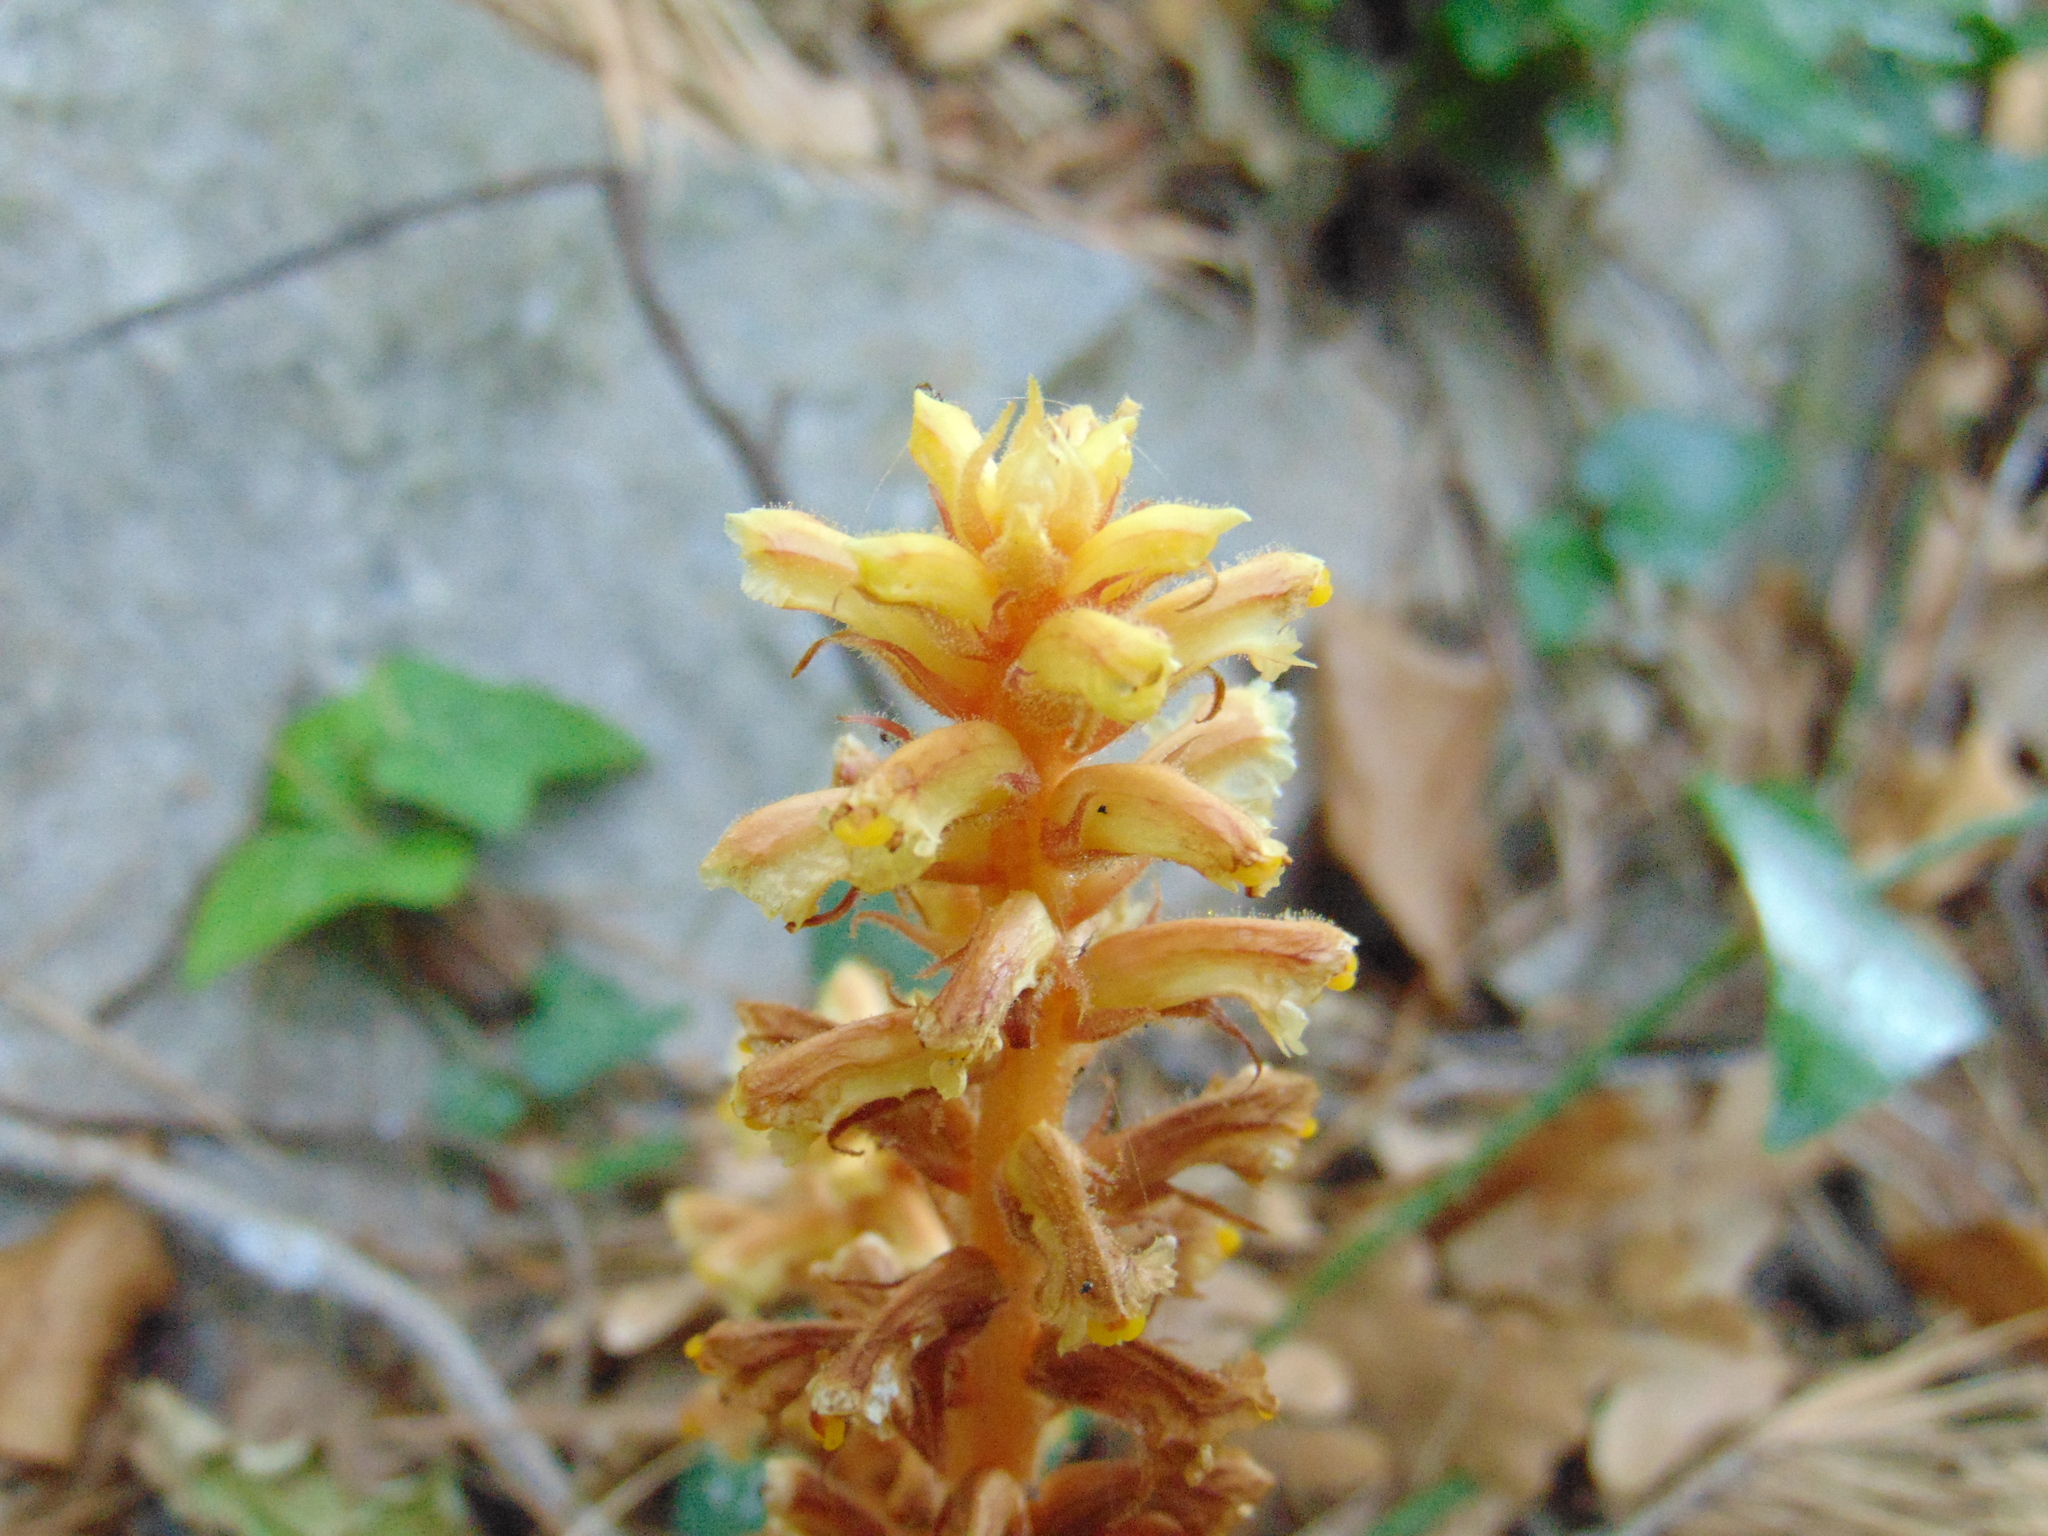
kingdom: Plantae
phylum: Tracheophyta
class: Magnoliopsida
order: Lamiales
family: Orobanchaceae
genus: Orobanche
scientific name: Orobanche hederae
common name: Ivy broomrape
